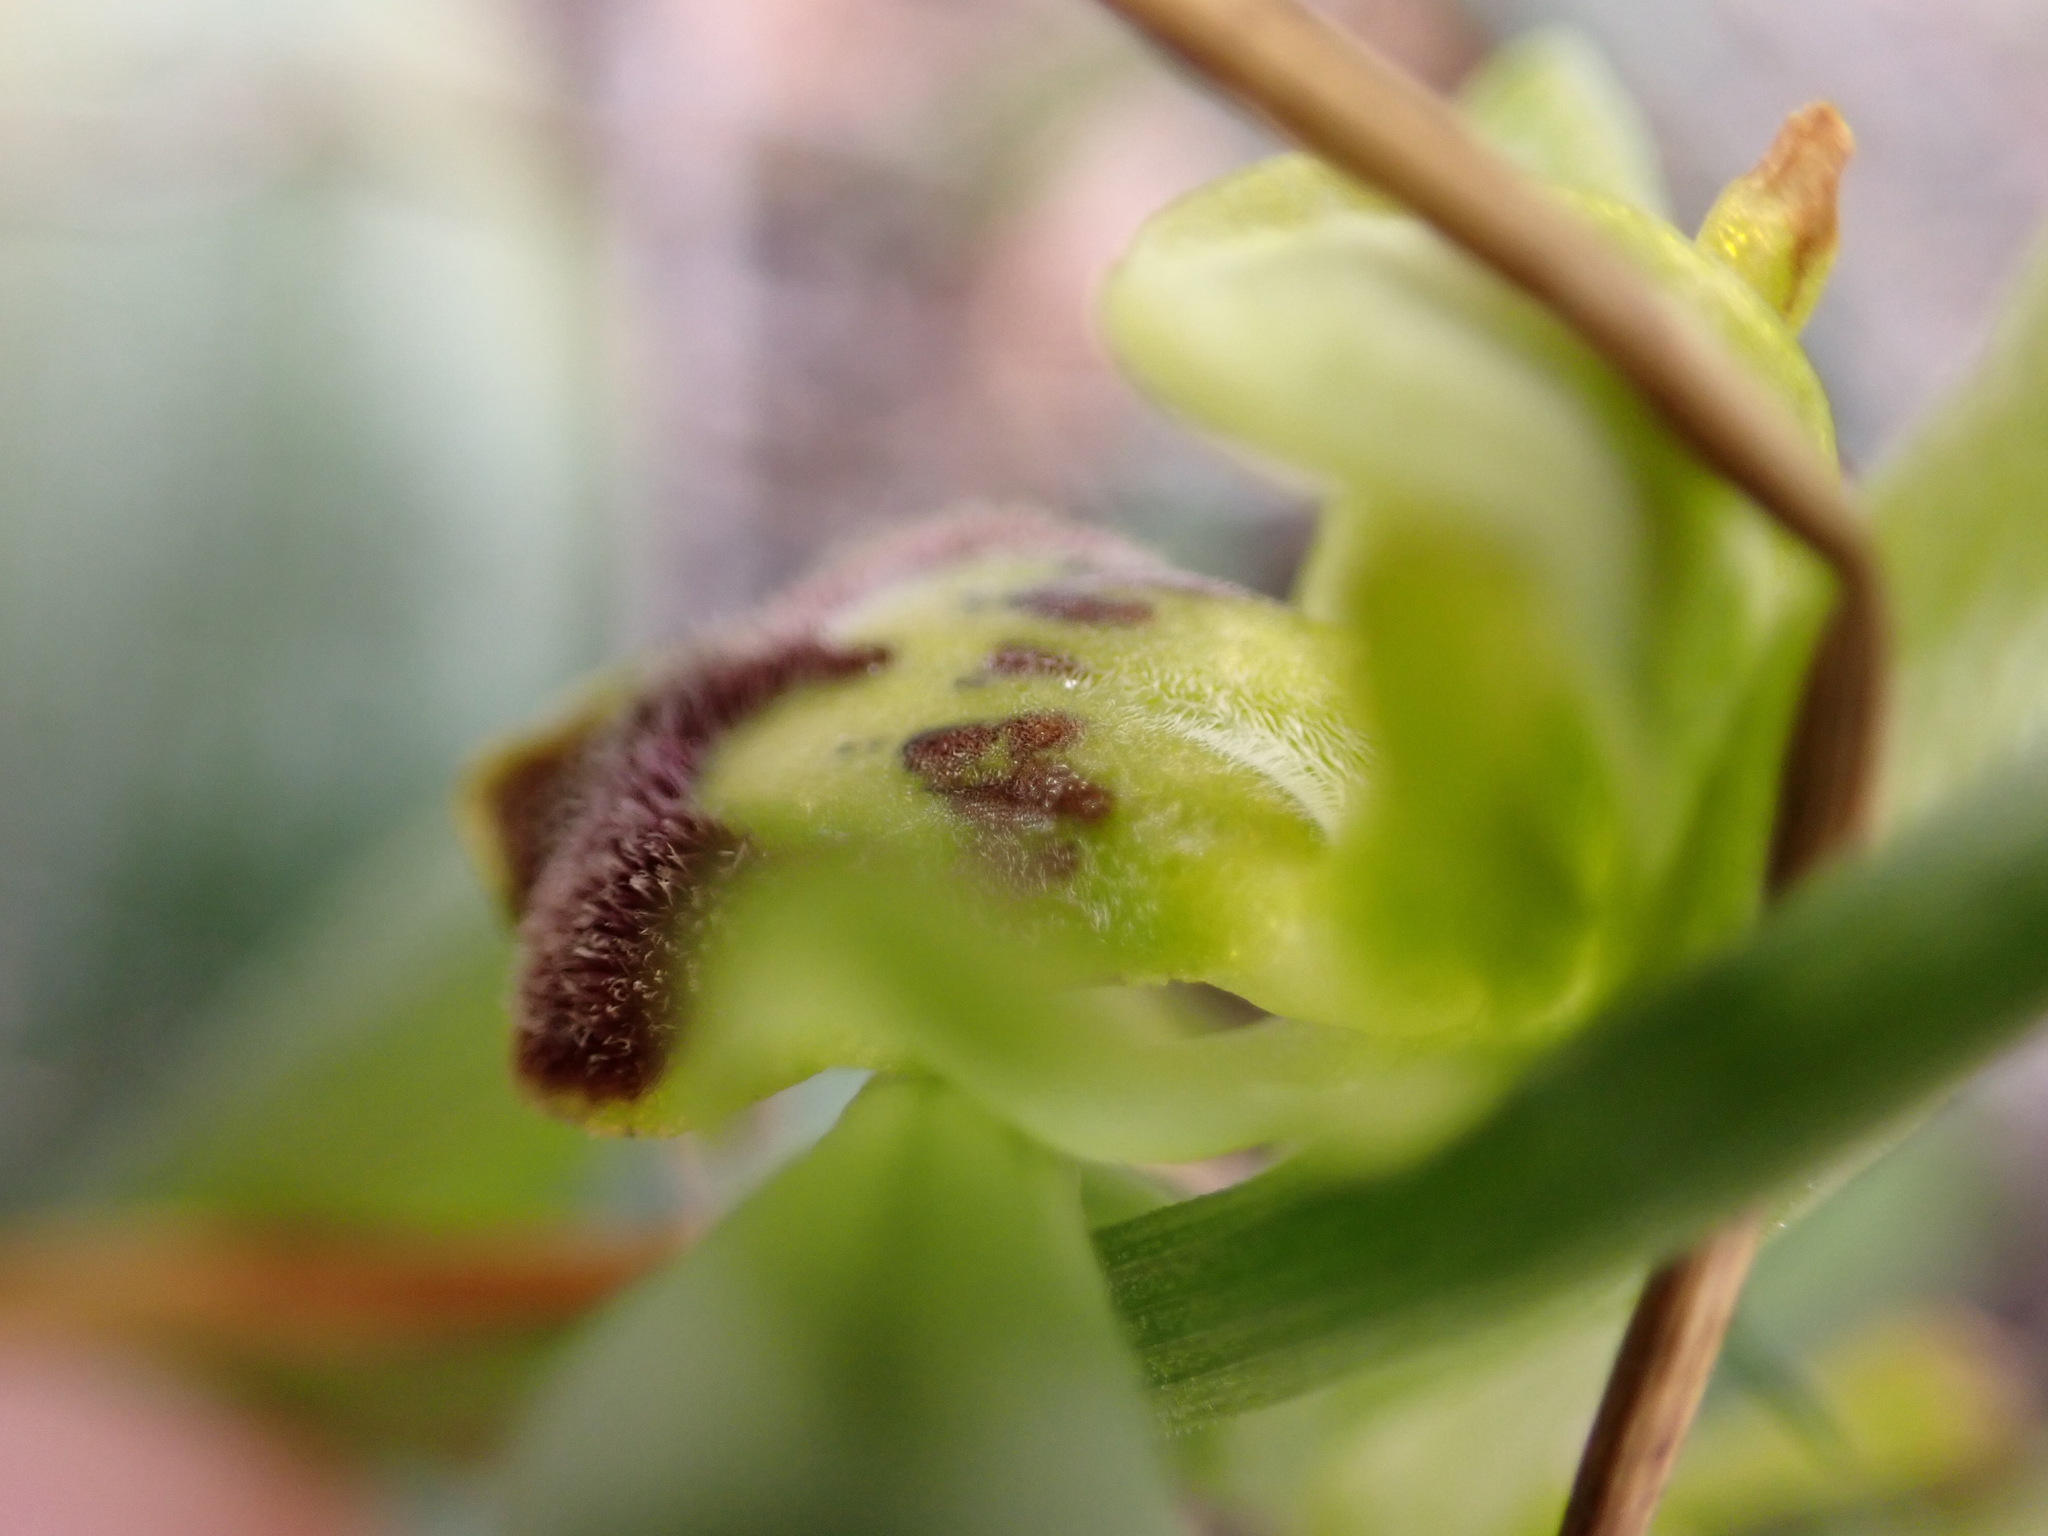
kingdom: Plantae
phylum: Tracheophyta
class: Liliopsida
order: Asparagales
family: Orchidaceae
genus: Ophrys
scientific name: Ophrys fusca
